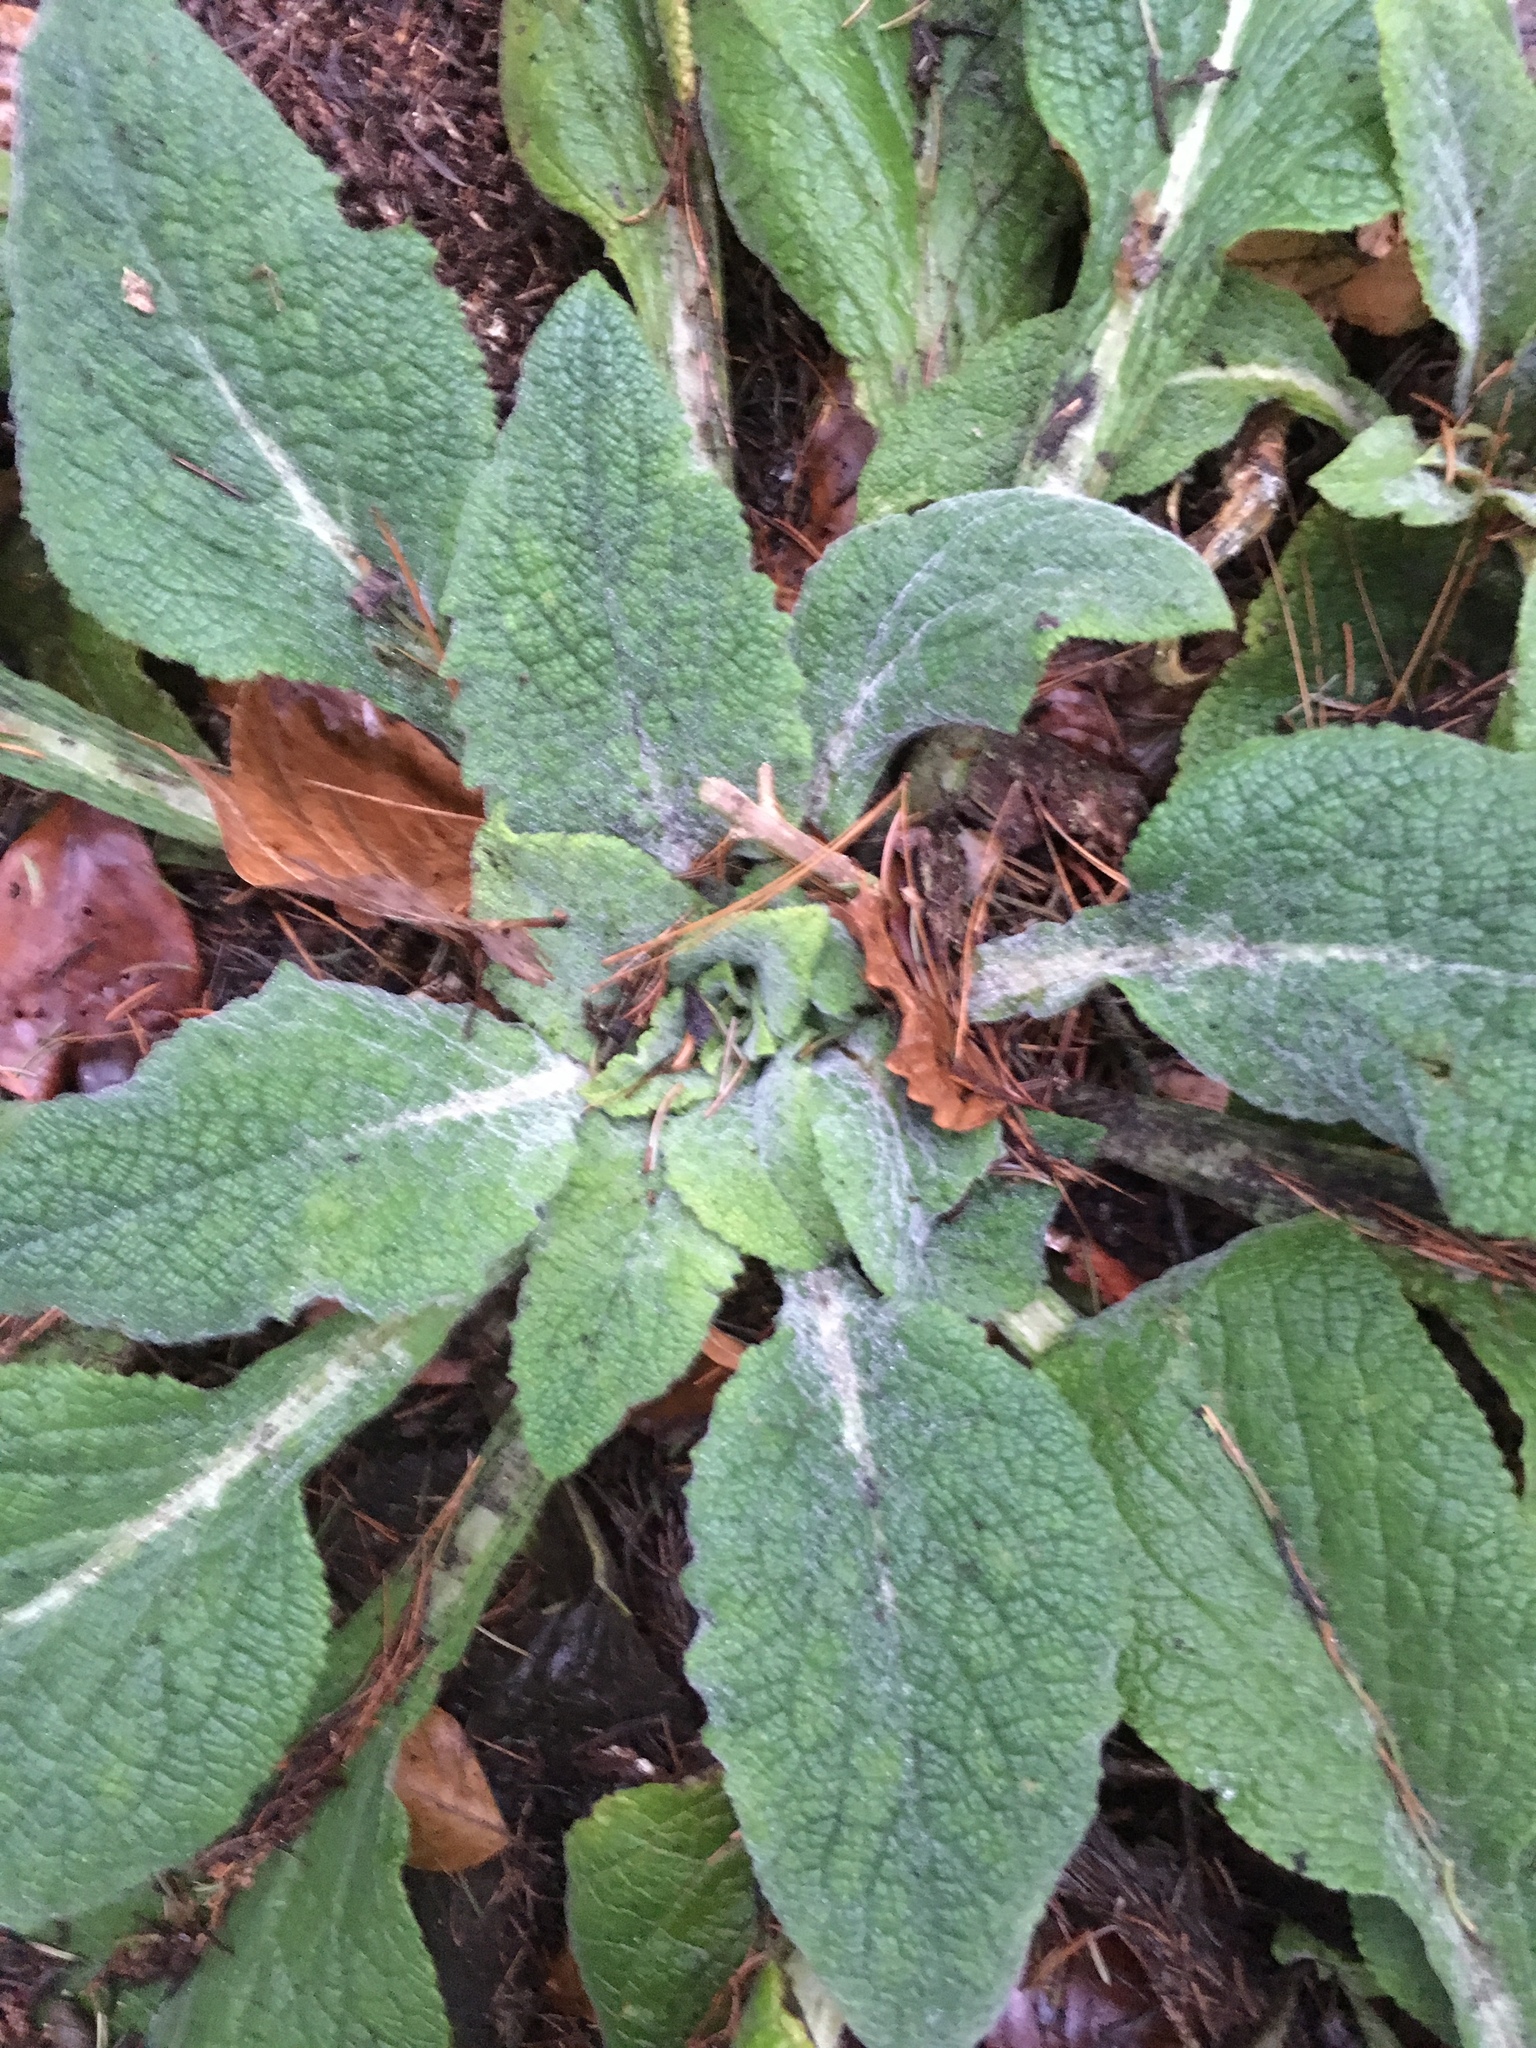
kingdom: Plantae
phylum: Tracheophyta
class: Magnoliopsida
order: Lamiales
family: Plantaginaceae
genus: Digitalis
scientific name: Digitalis purpurea
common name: Foxglove
